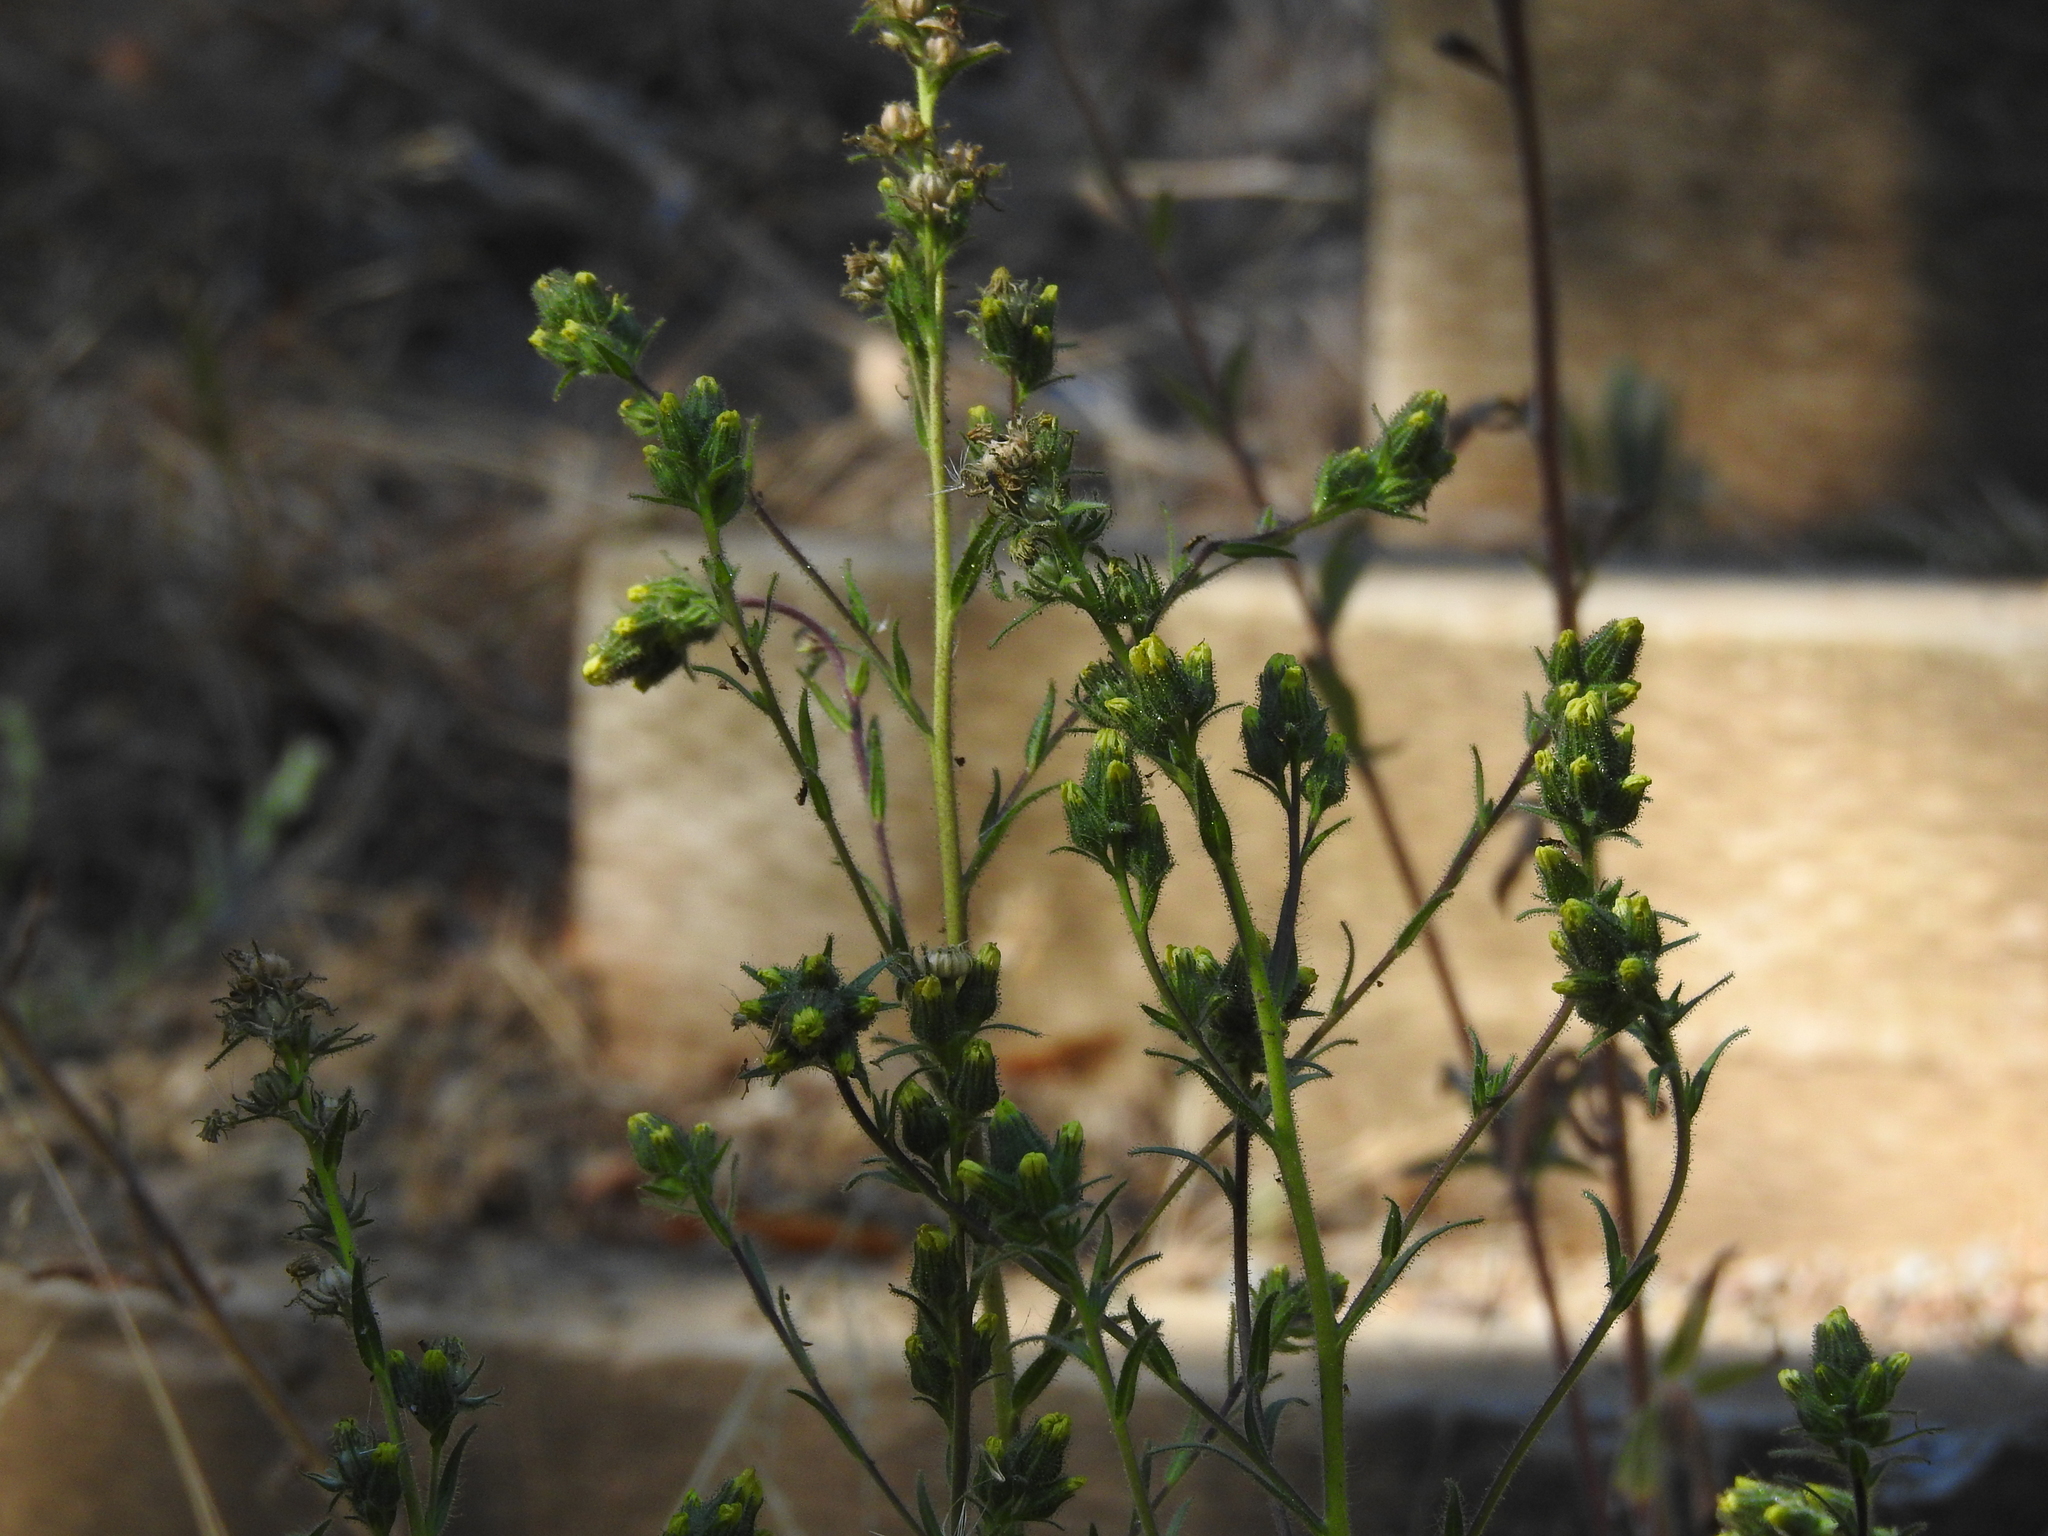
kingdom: Plantae
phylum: Tracheophyta
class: Magnoliopsida
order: Asterales
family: Asteraceae
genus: Madia
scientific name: Madia sativa
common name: Coast tarweed
